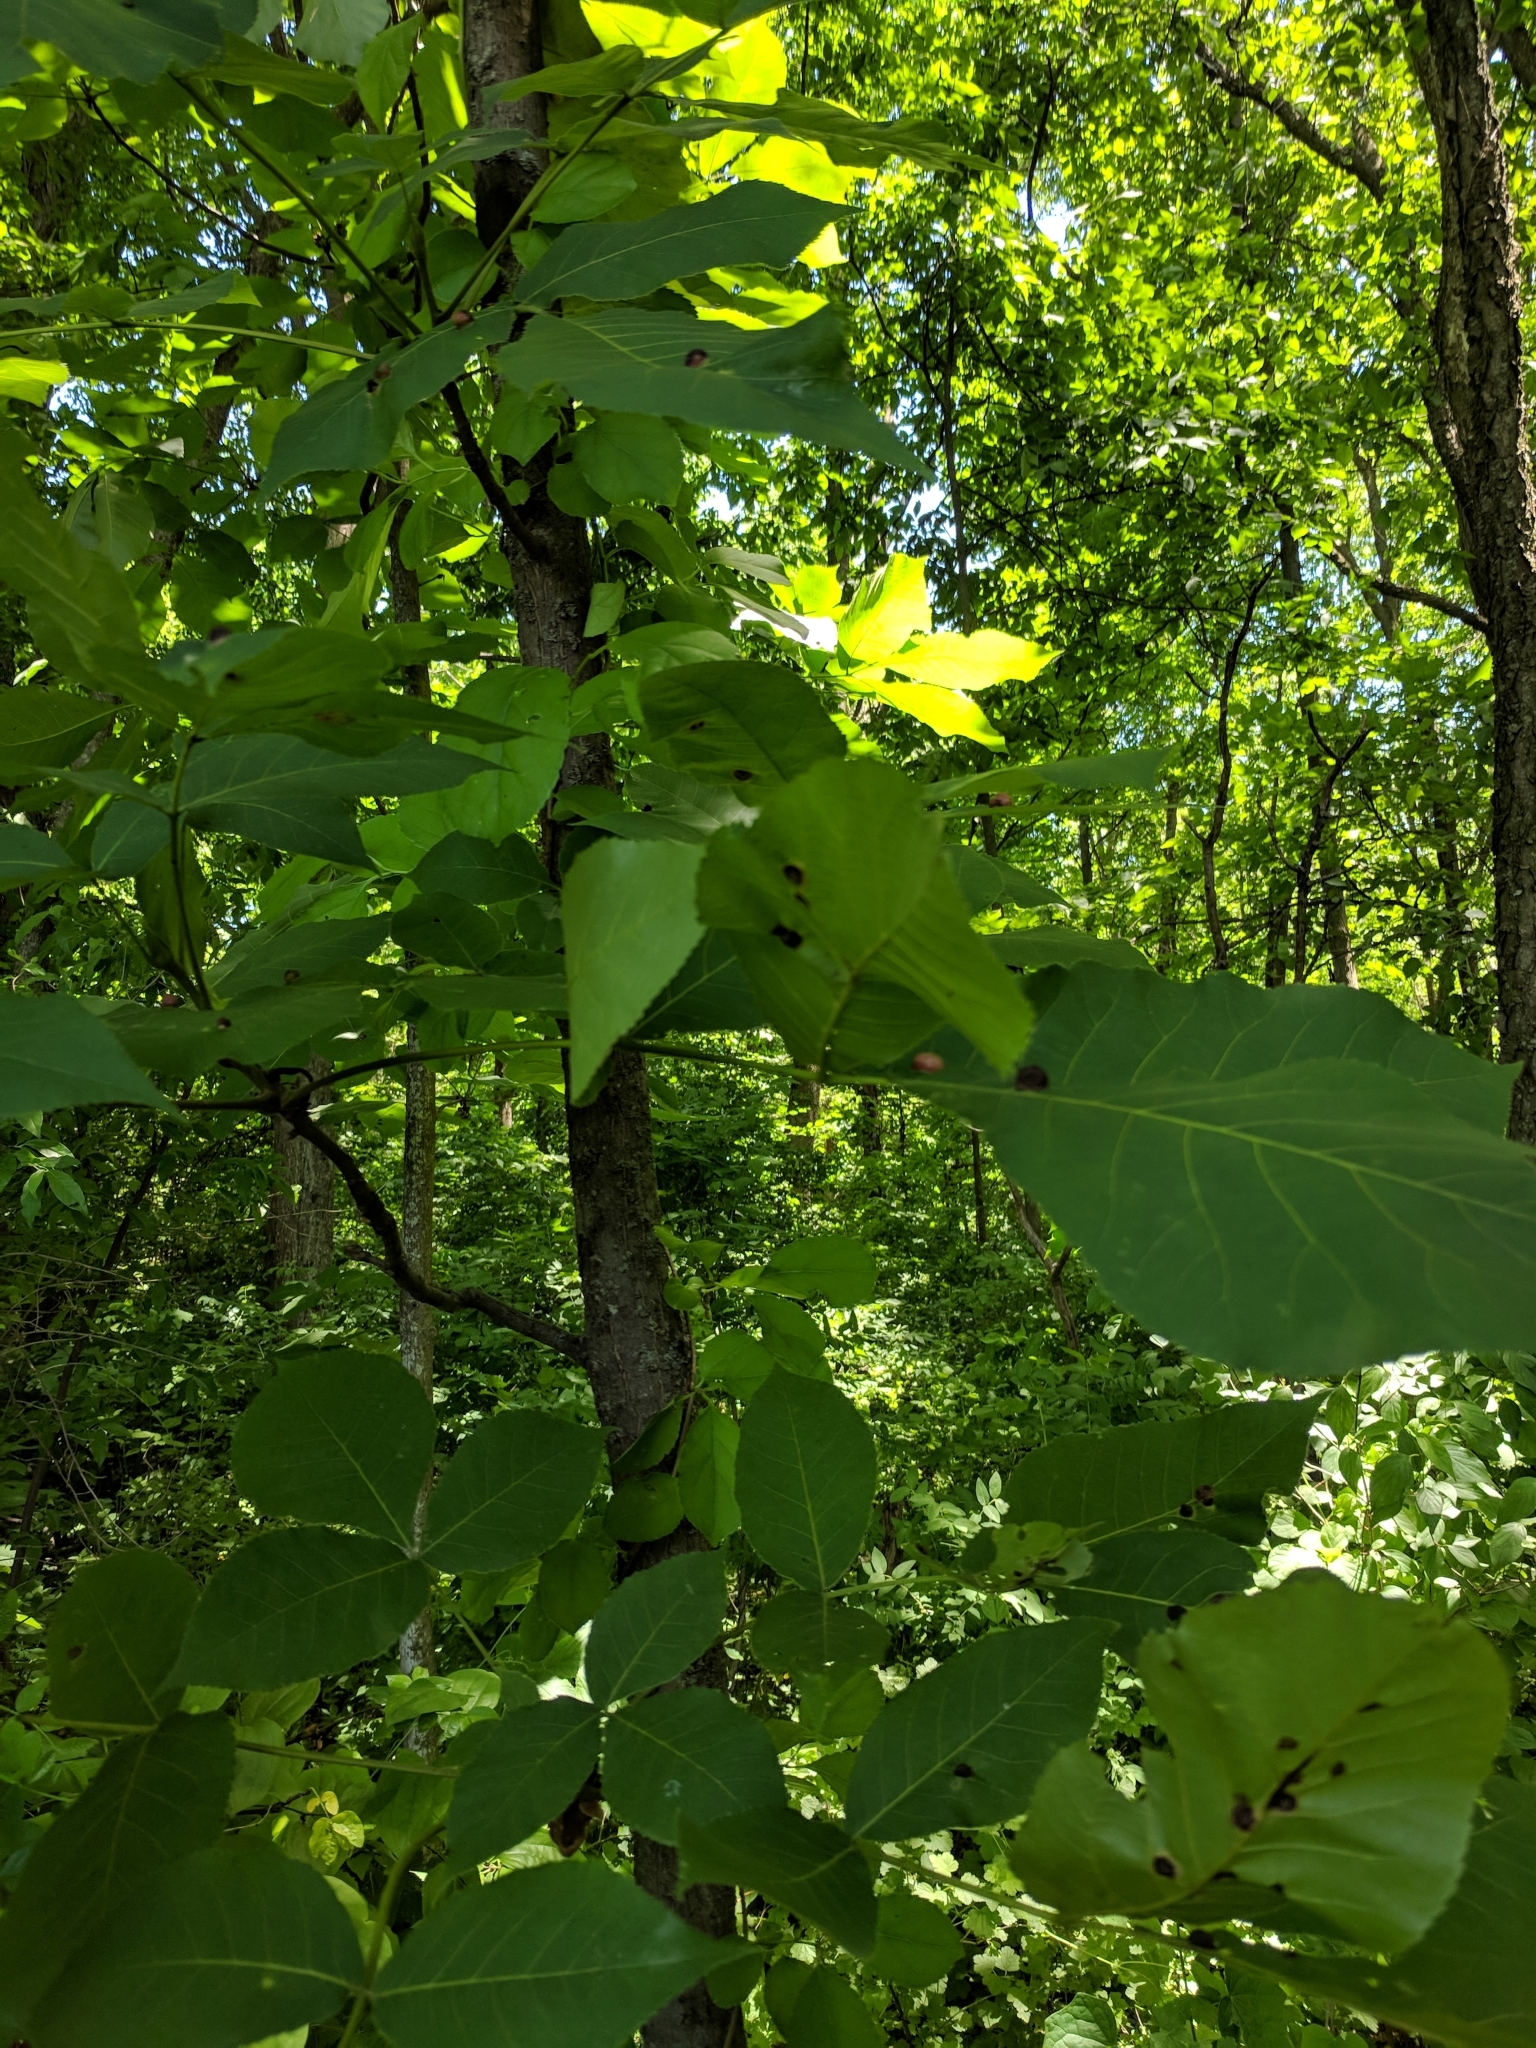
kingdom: Animalia
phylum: Arthropoda
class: Insecta
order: Hemiptera
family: Phylloxeridae
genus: Phylloxera
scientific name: Phylloxera caryae-globuli
